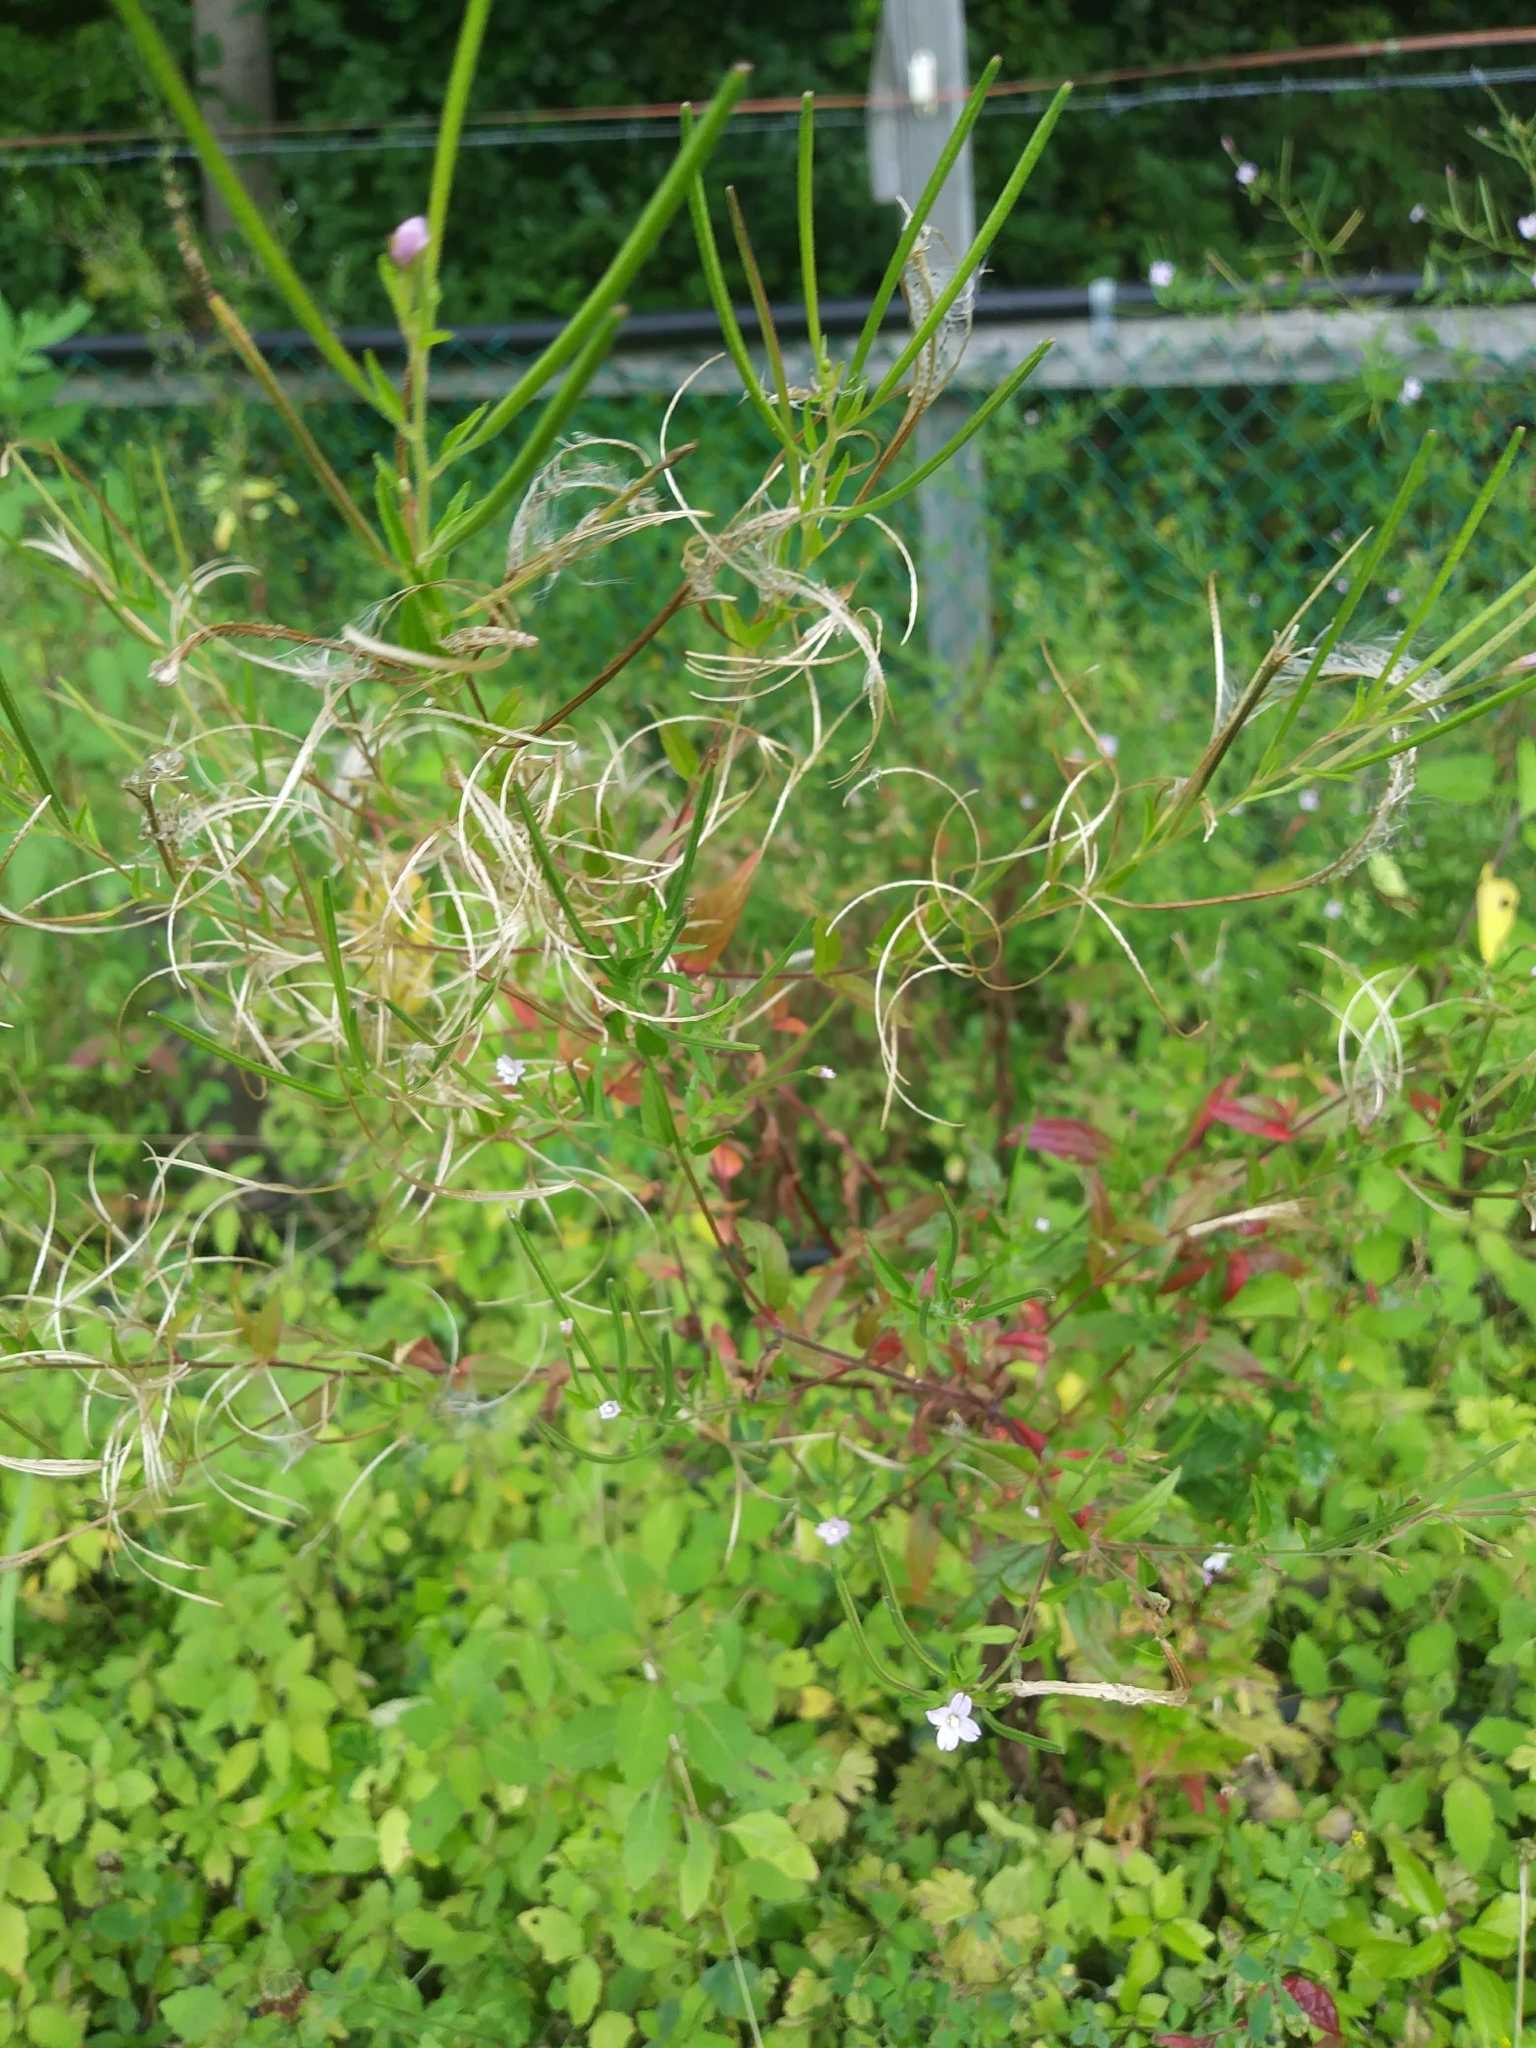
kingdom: Plantae
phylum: Tracheophyta
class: Magnoliopsida
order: Myrtales
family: Onagraceae
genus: Epilobium
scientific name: Epilobium ciliatum
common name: American willowherb
